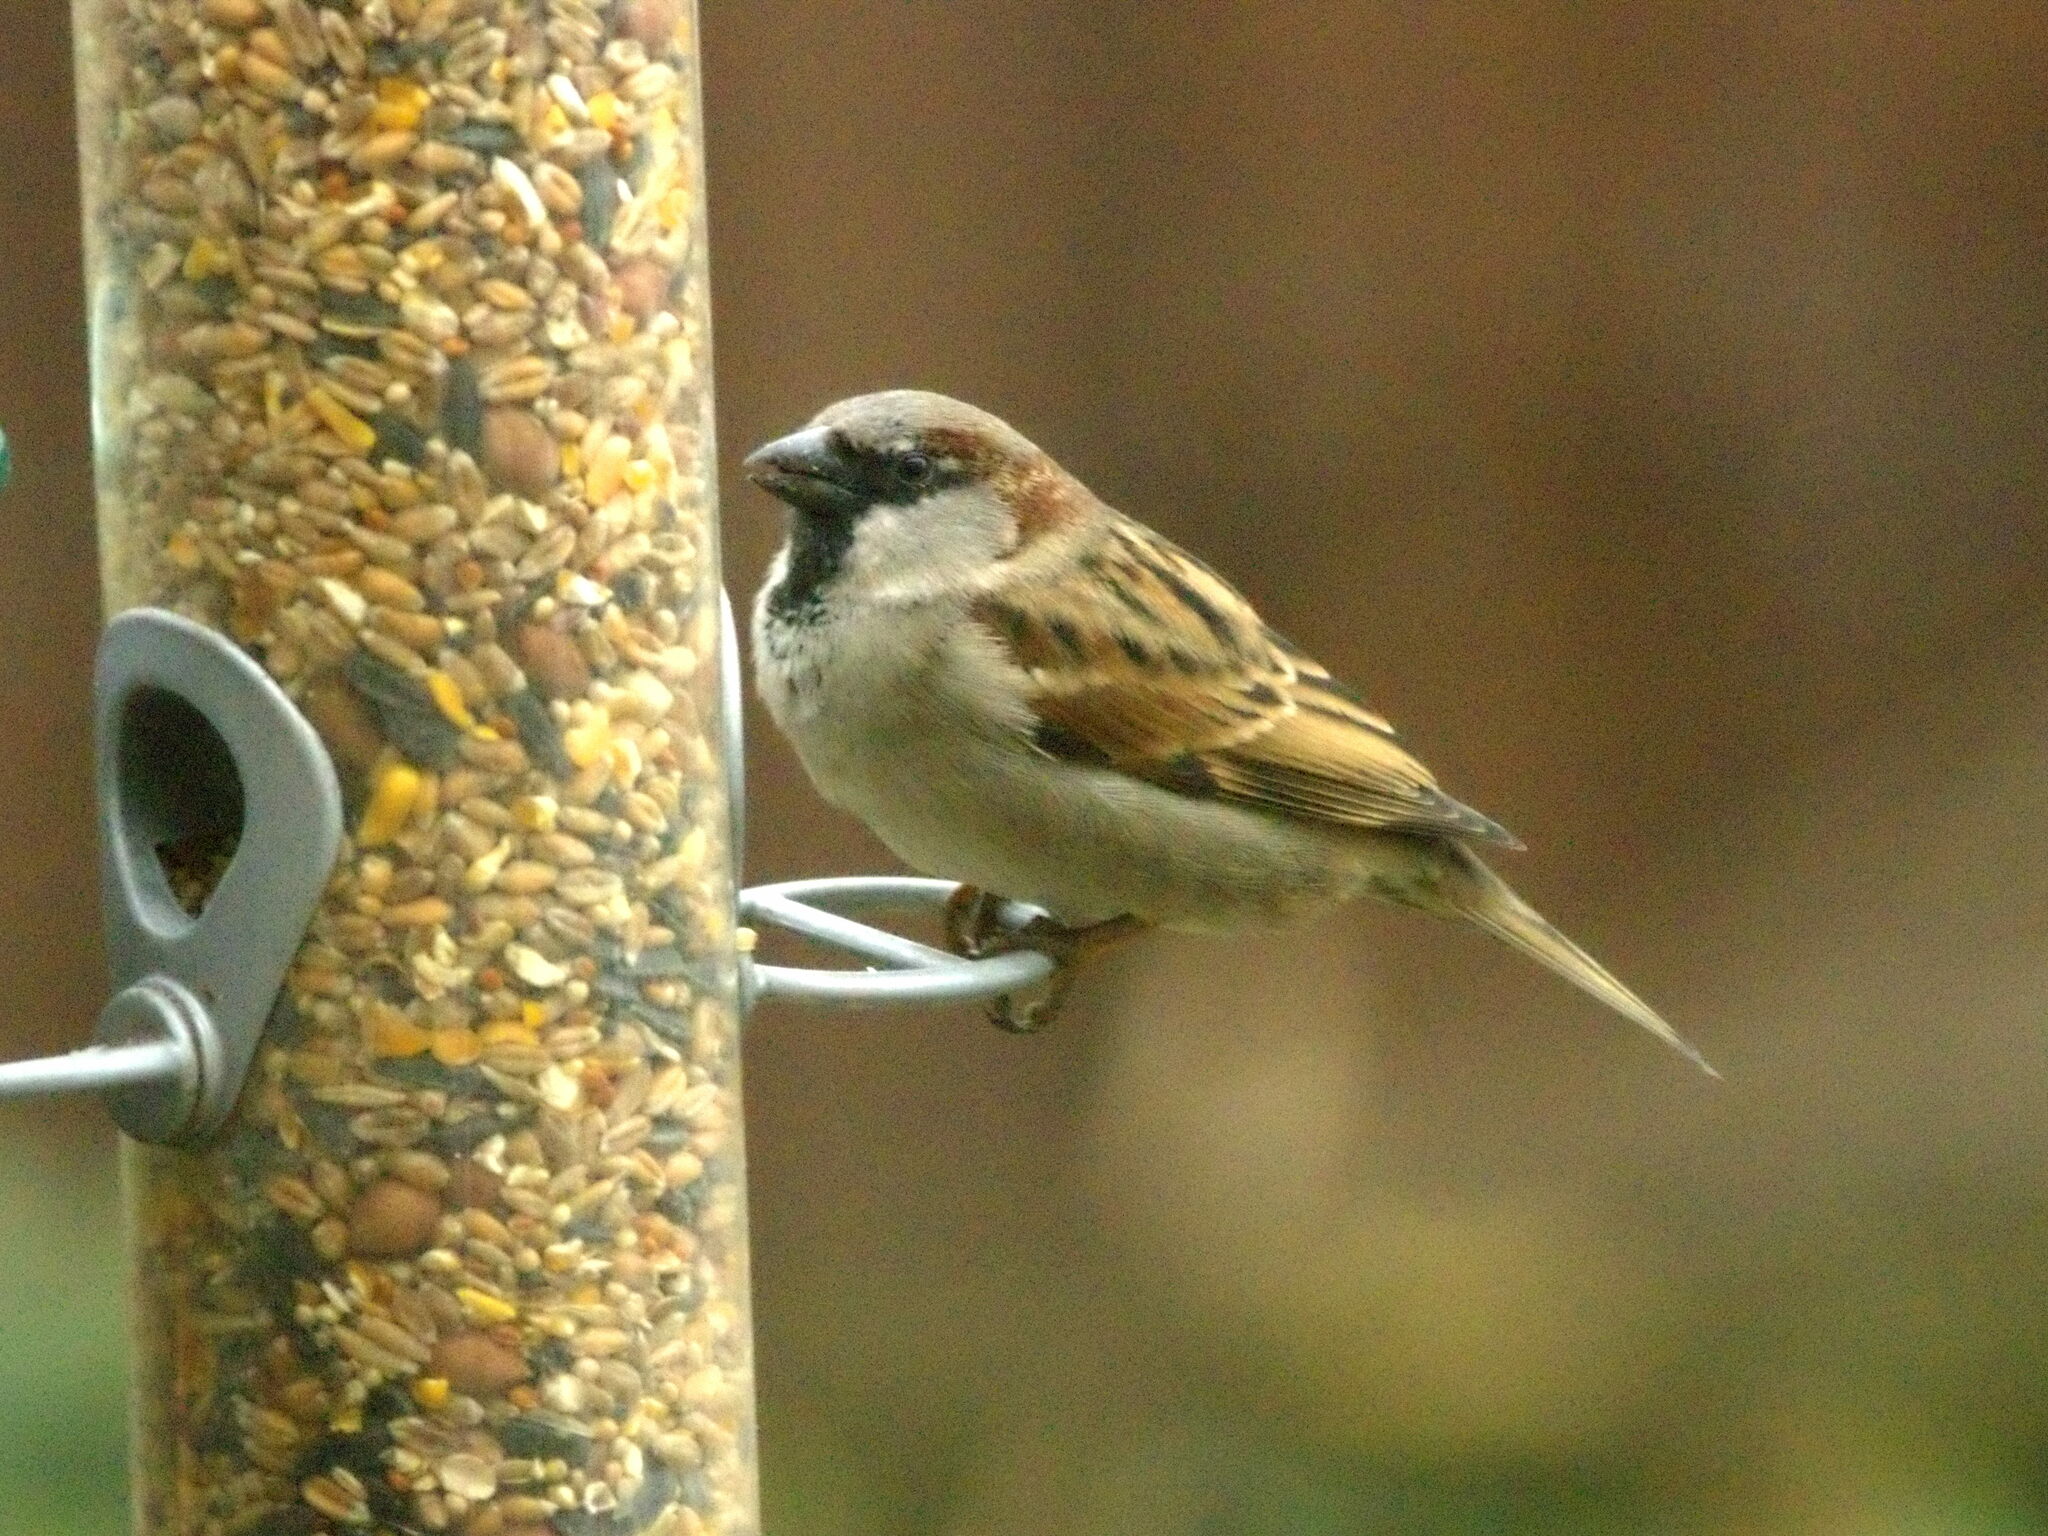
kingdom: Animalia
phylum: Chordata
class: Aves
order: Passeriformes
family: Passeridae
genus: Passer
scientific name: Passer domesticus
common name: House sparrow
